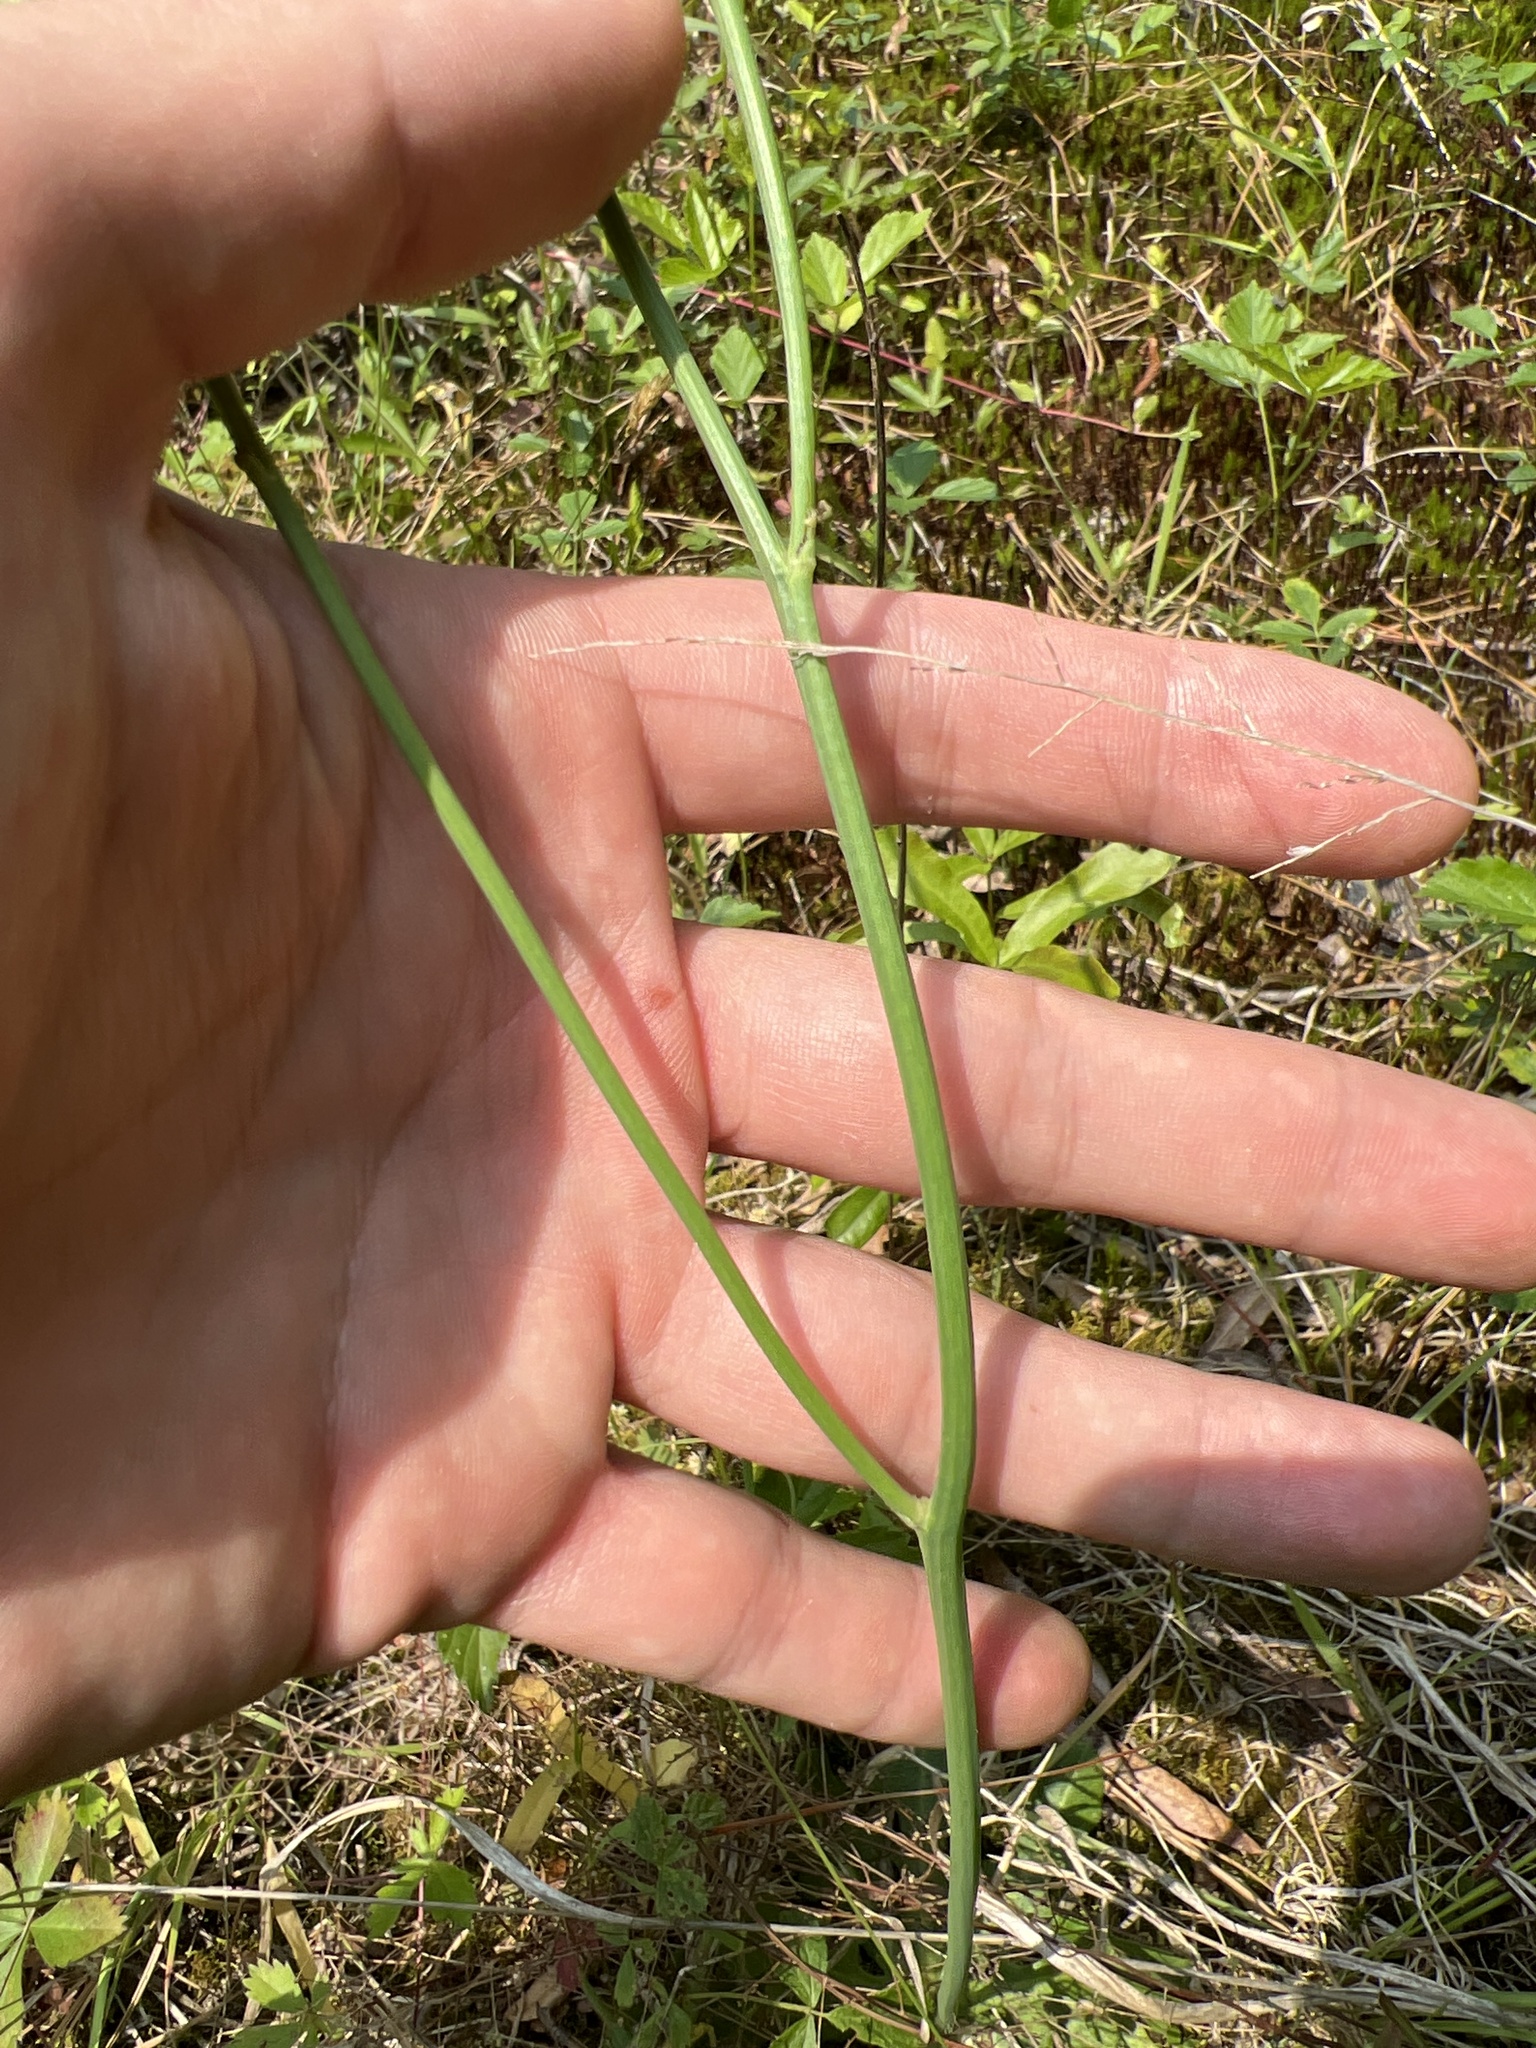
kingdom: Plantae
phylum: Tracheophyta
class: Magnoliopsida
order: Asterales
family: Asteraceae
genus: Hypochaeris
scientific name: Hypochaeris radicata
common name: Flatweed
